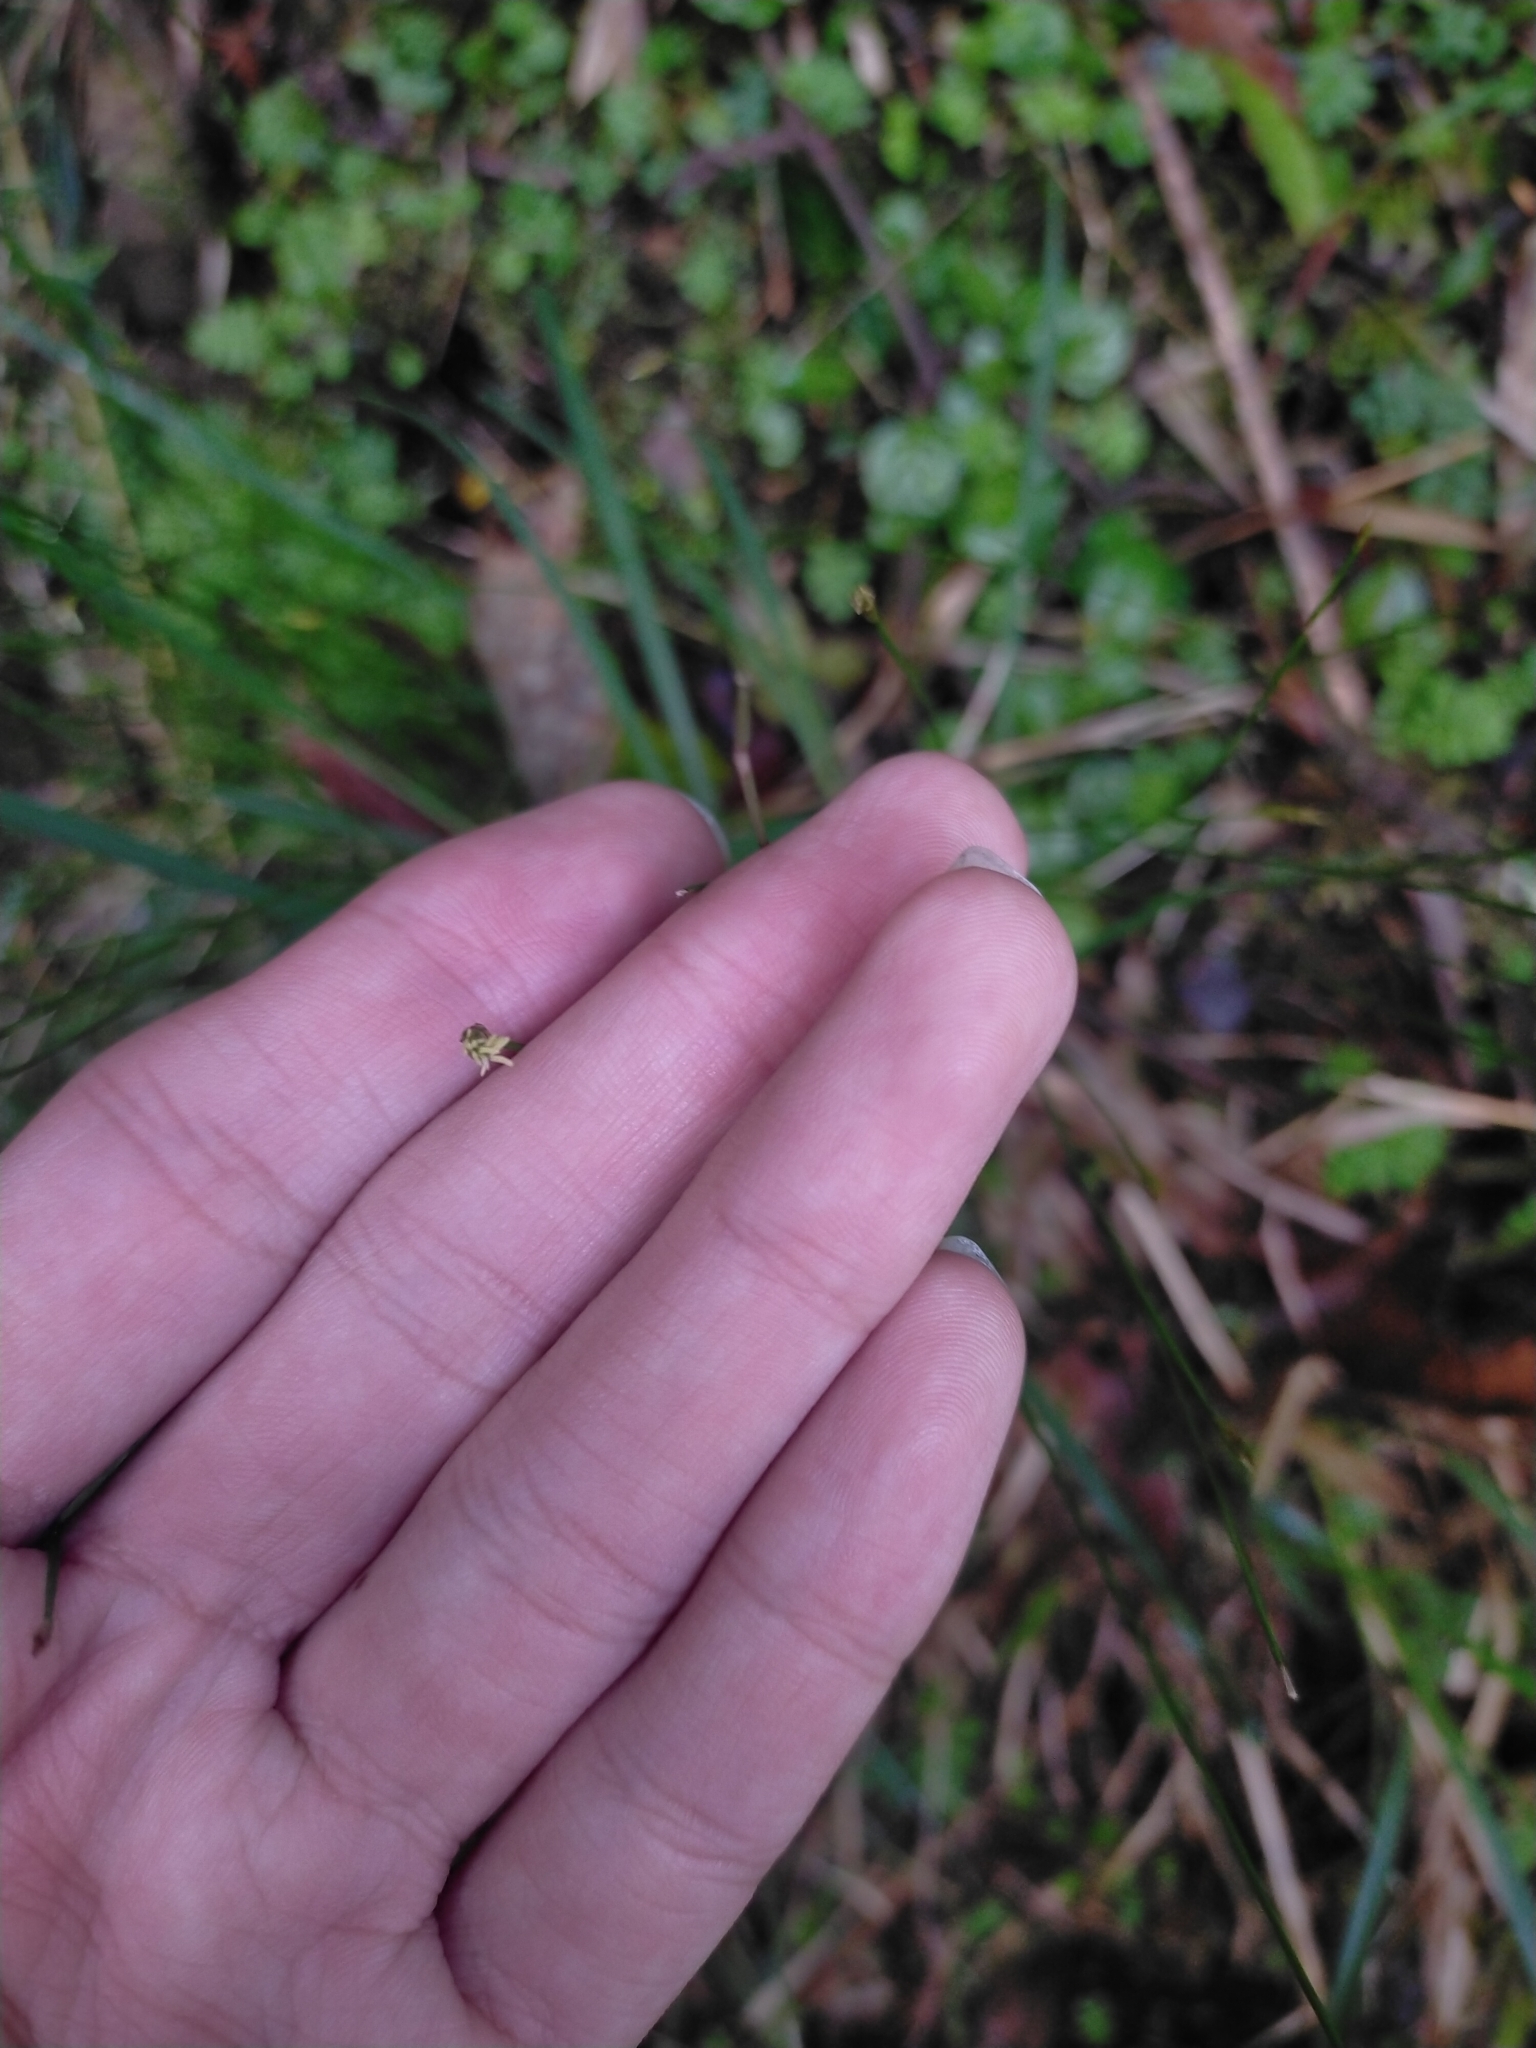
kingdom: Plantae
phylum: Tracheophyta
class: Liliopsida
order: Poales
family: Cyperaceae
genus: Trichophorum
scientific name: Trichophorum subcapitatum
